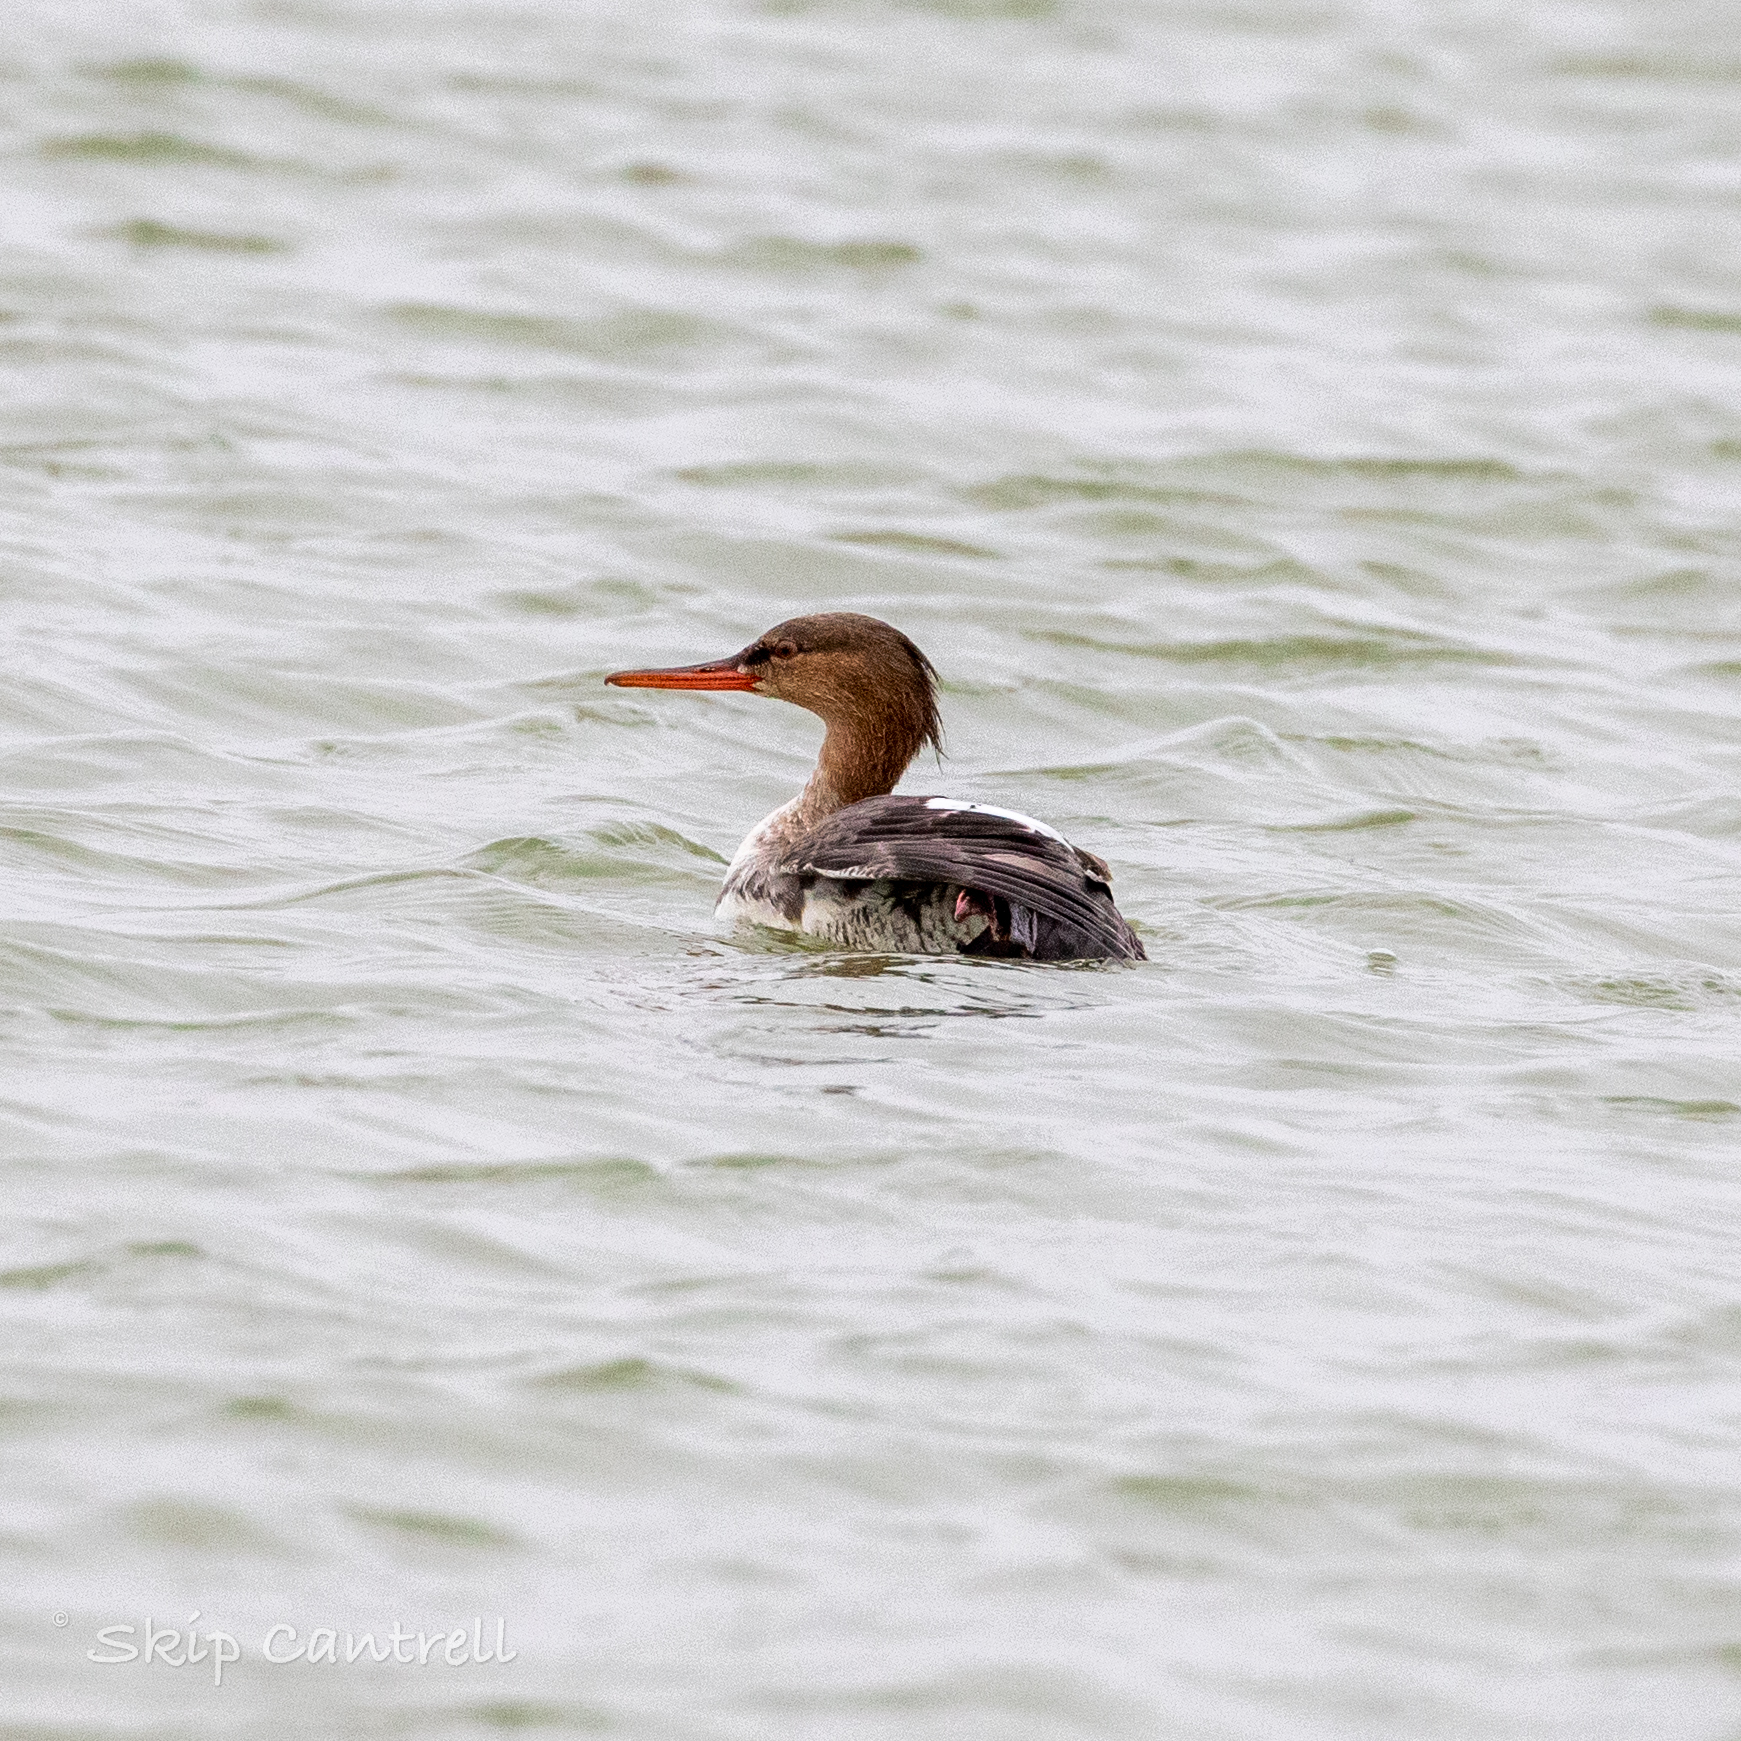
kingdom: Animalia
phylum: Chordata
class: Aves
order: Anseriformes
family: Anatidae
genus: Mergus
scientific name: Mergus serrator
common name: Red-breasted merganser
